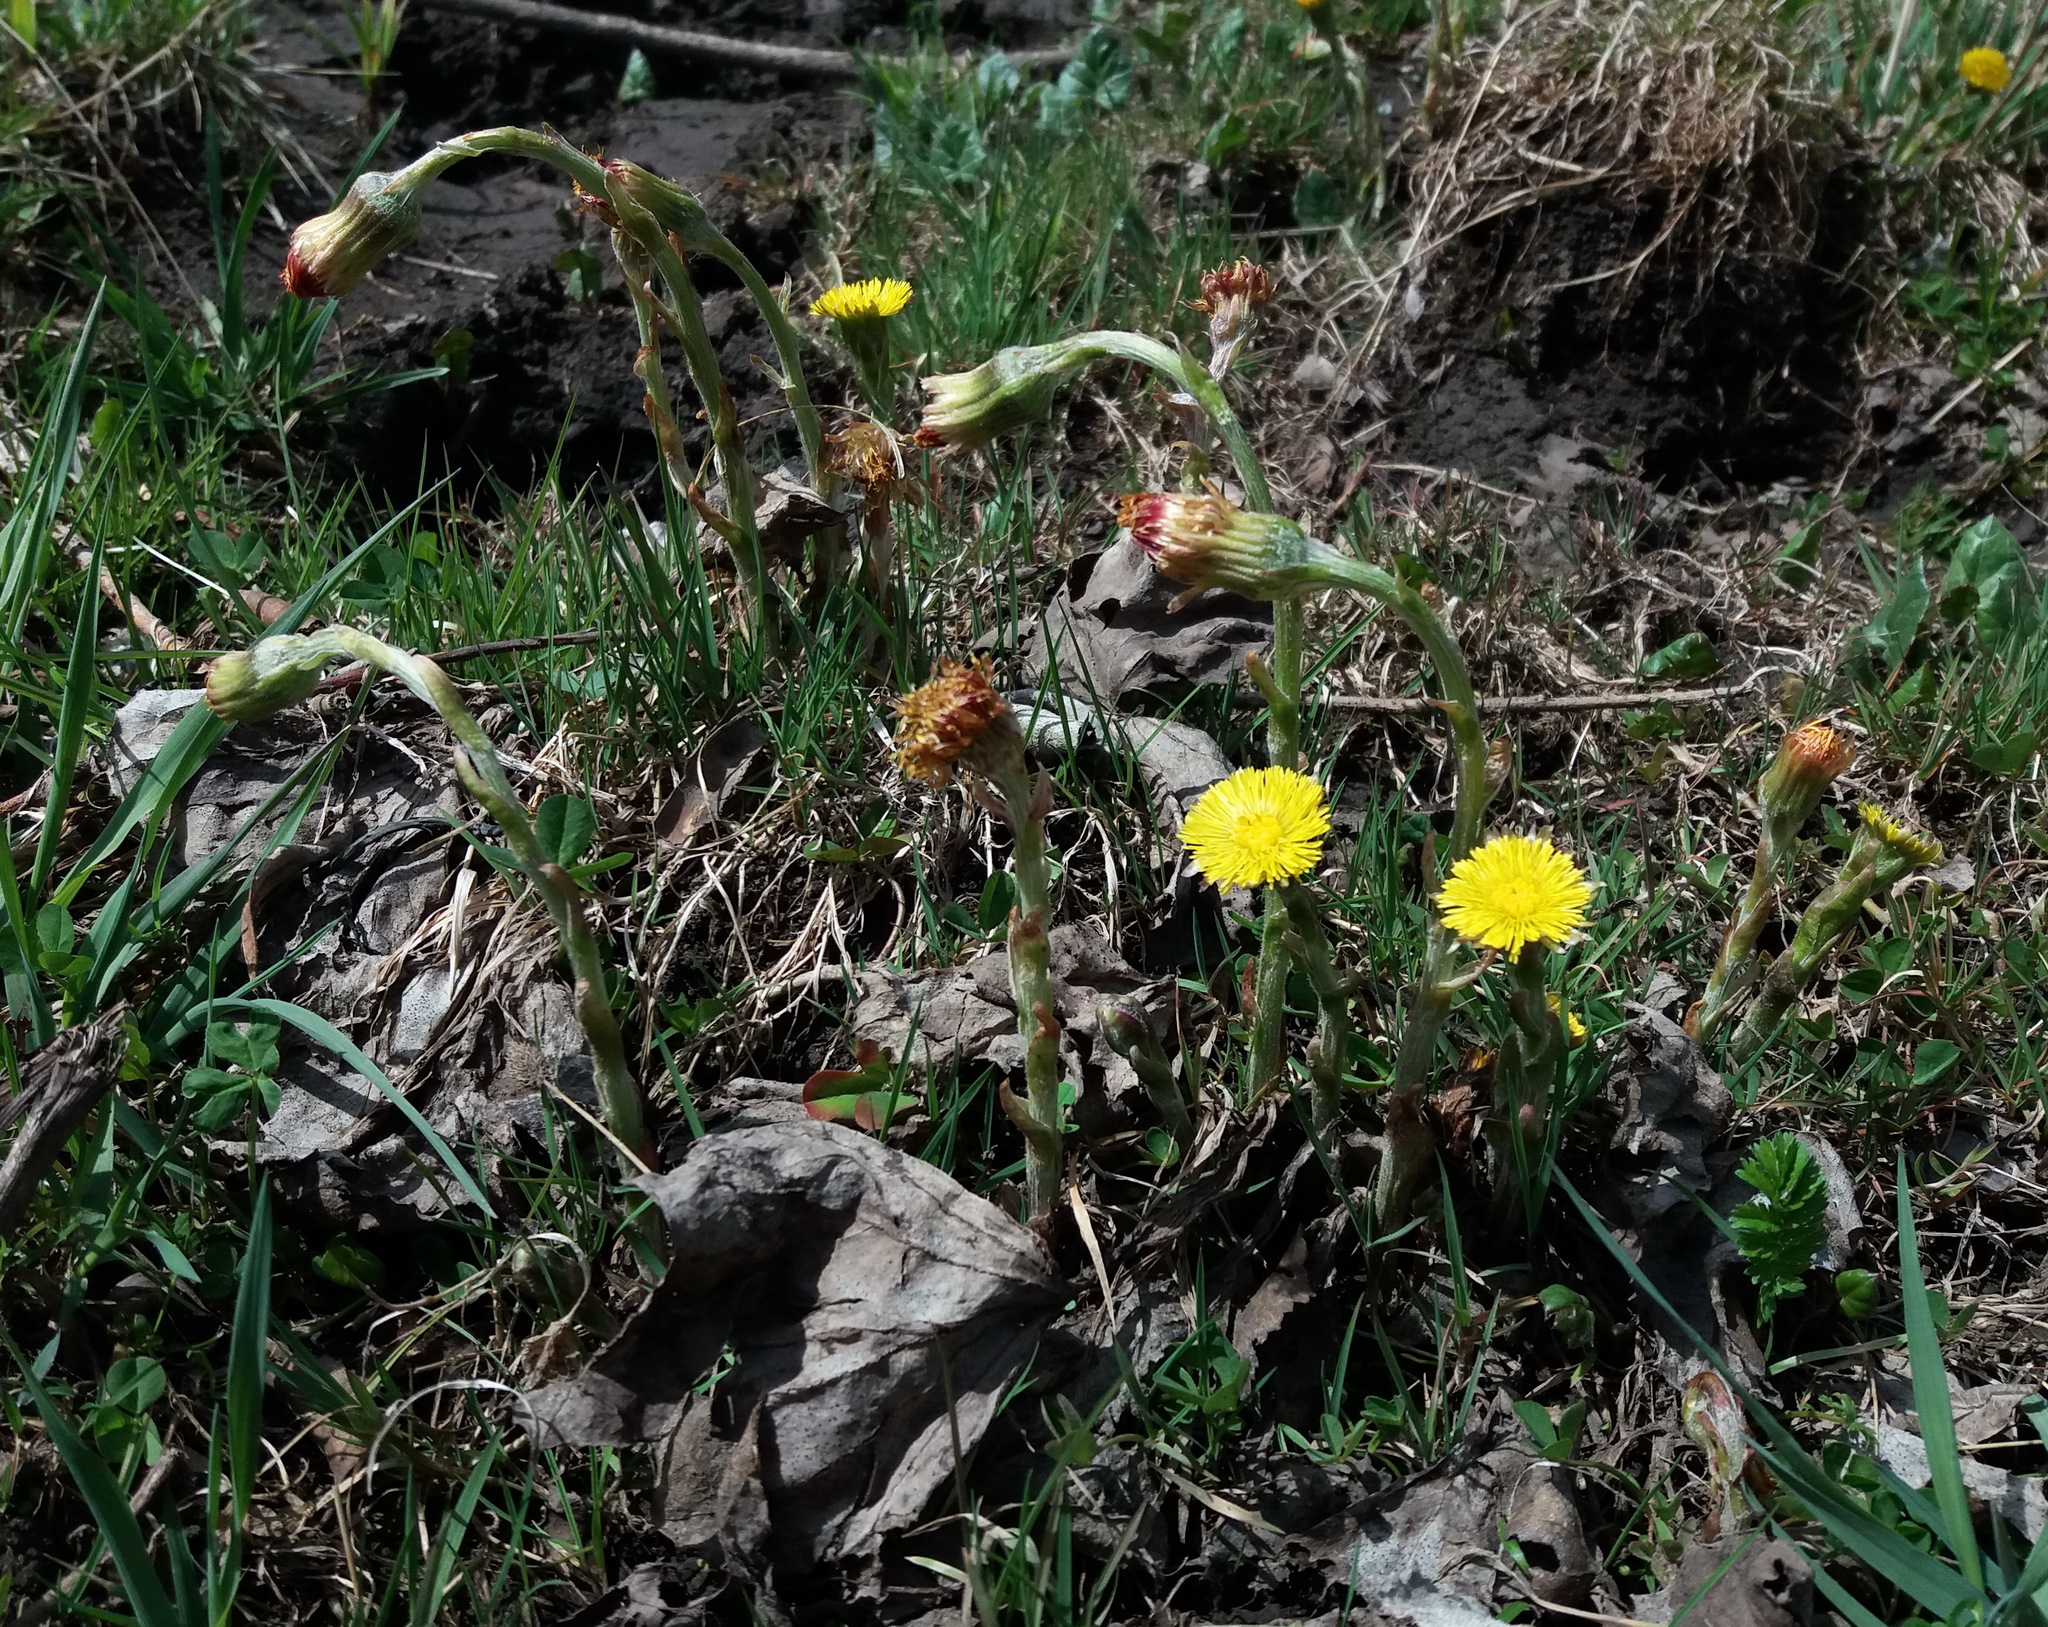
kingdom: Plantae
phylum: Tracheophyta
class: Magnoliopsida
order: Asterales
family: Asteraceae
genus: Tussilago
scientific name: Tussilago farfara
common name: Coltsfoot
